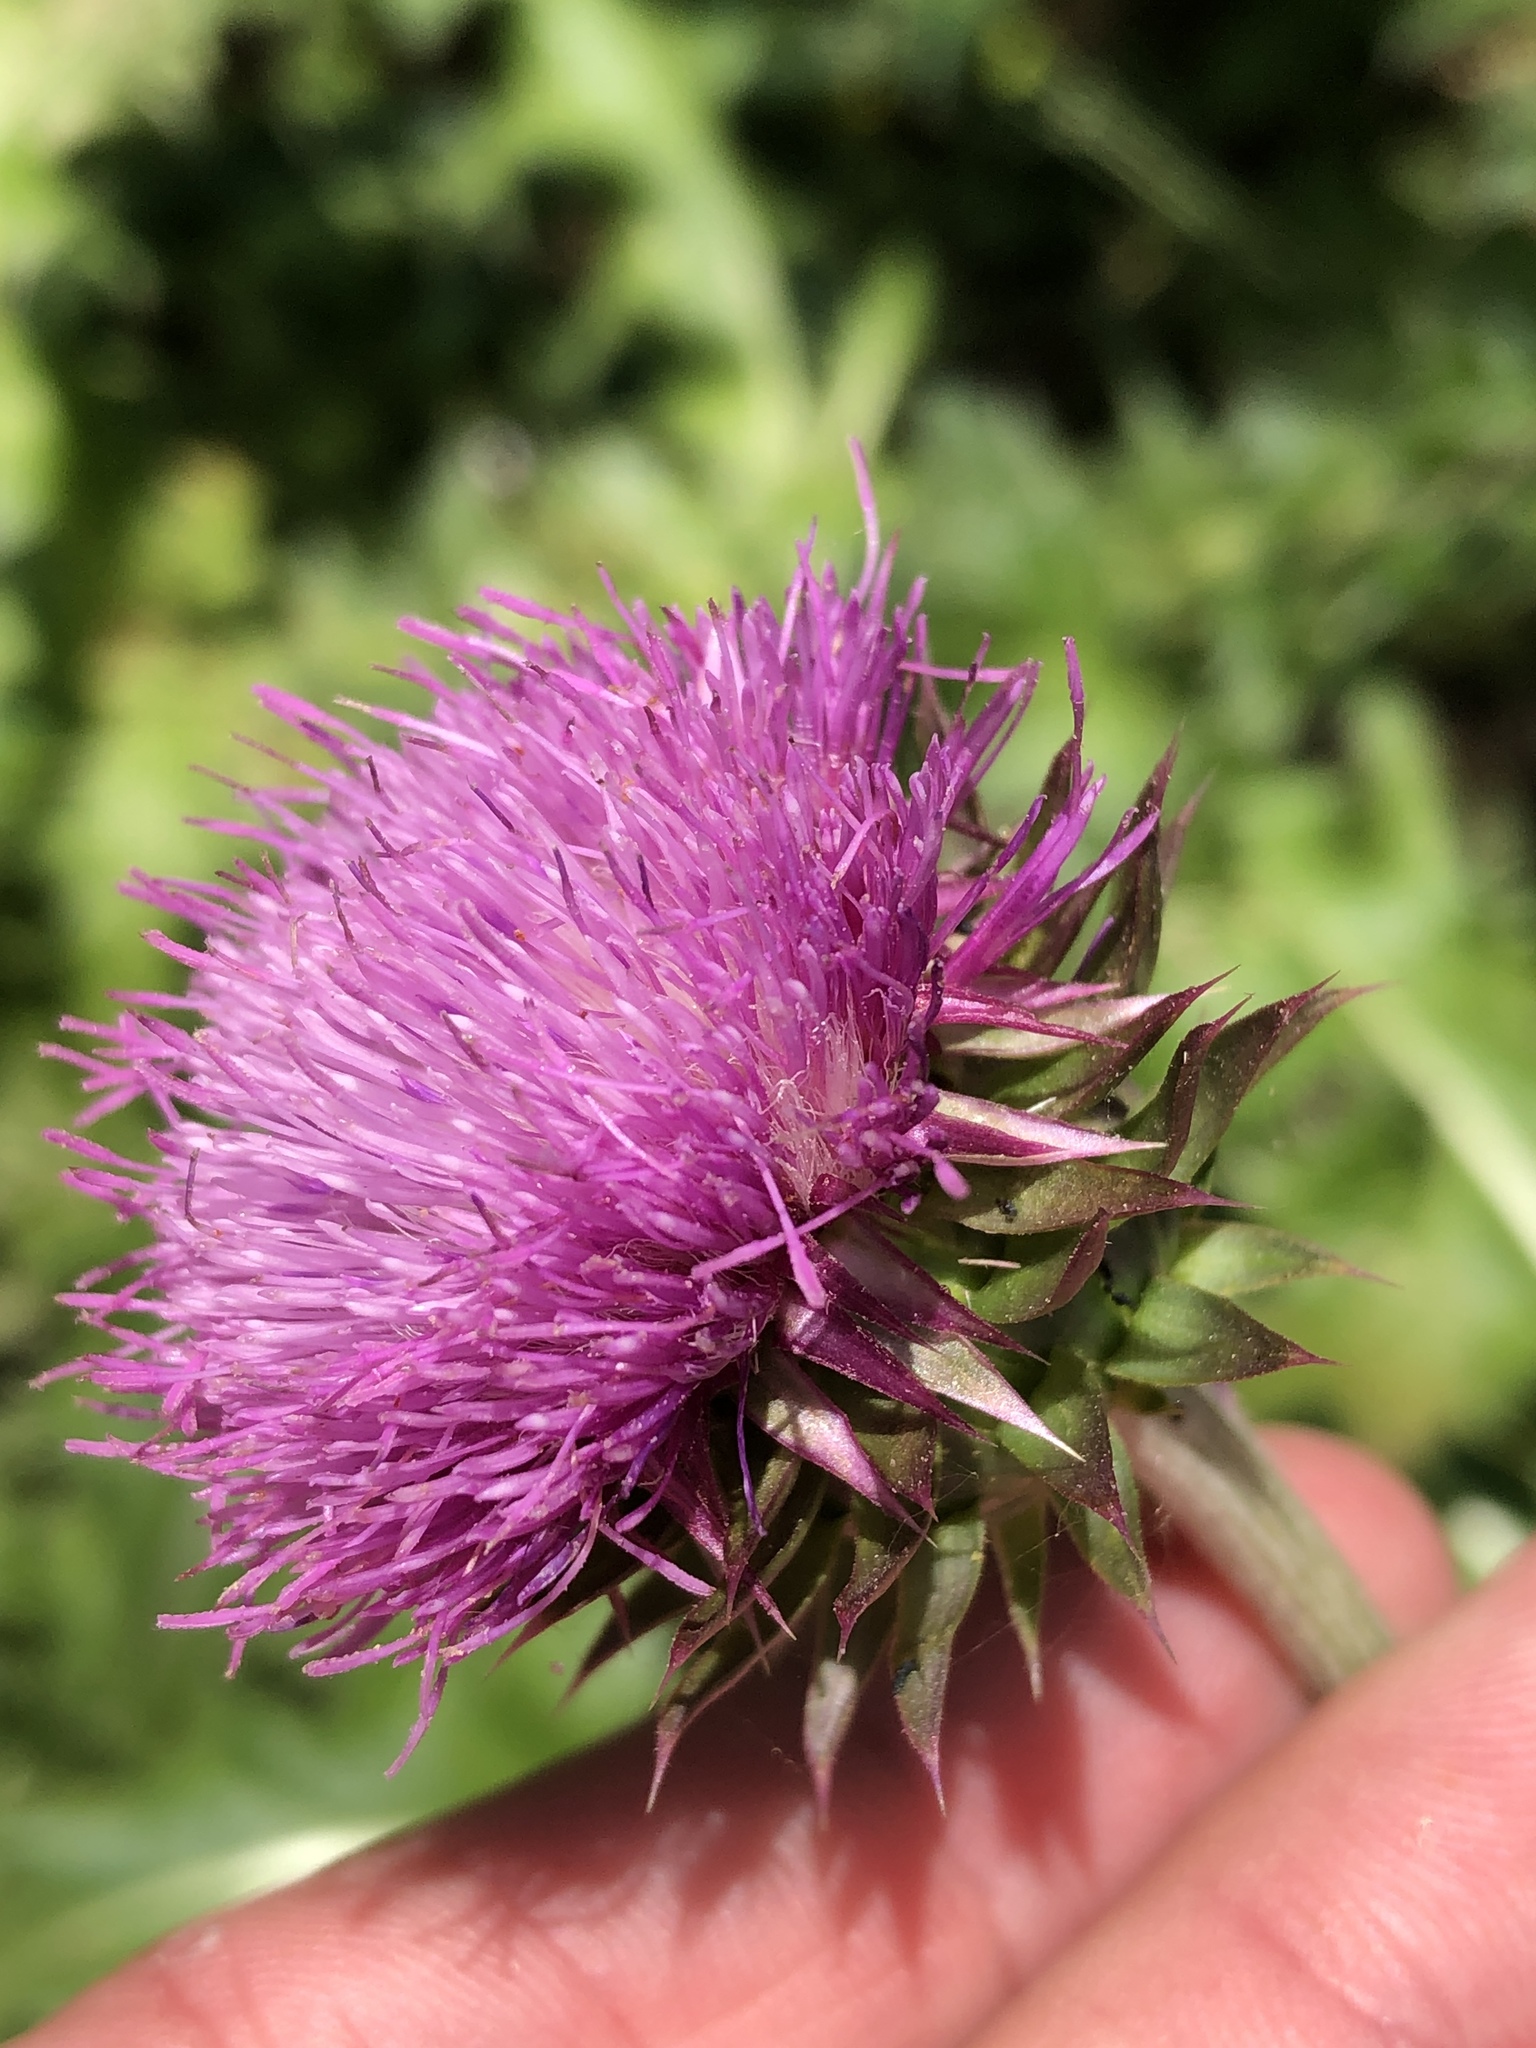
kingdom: Plantae
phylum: Tracheophyta
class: Magnoliopsida
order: Asterales
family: Asteraceae
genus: Carduus
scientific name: Carduus nutans
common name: Musk thistle
